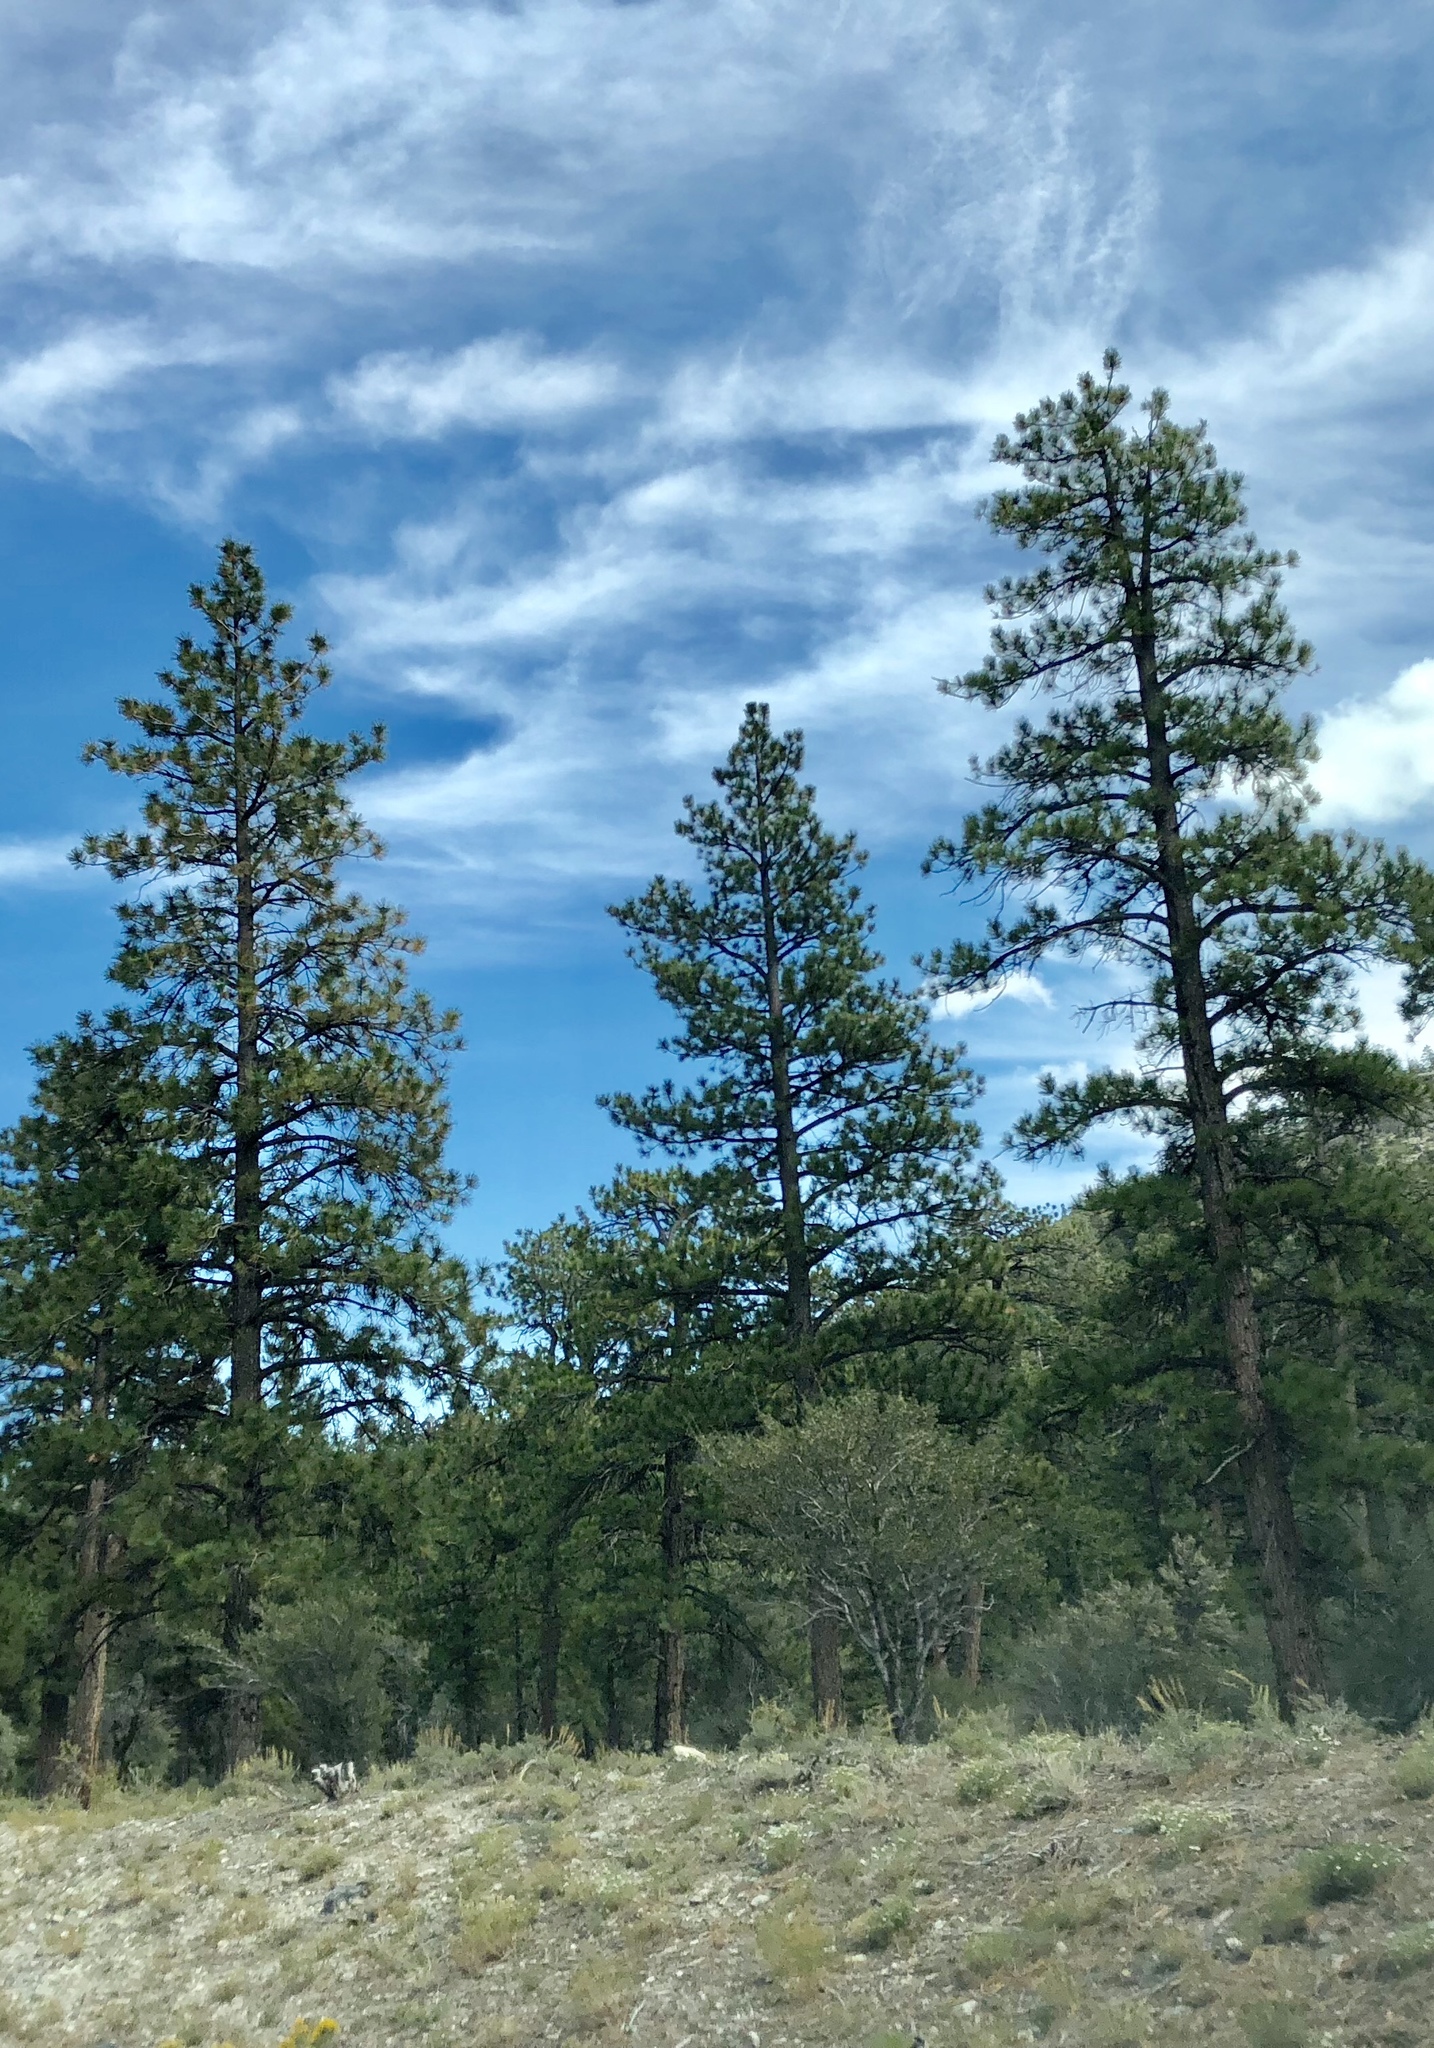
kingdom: Plantae
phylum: Tracheophyta
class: Pinopsida
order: Pinales
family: Pinaceae
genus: Pinus
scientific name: Pinus ponderosa
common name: Western yellow-pine
